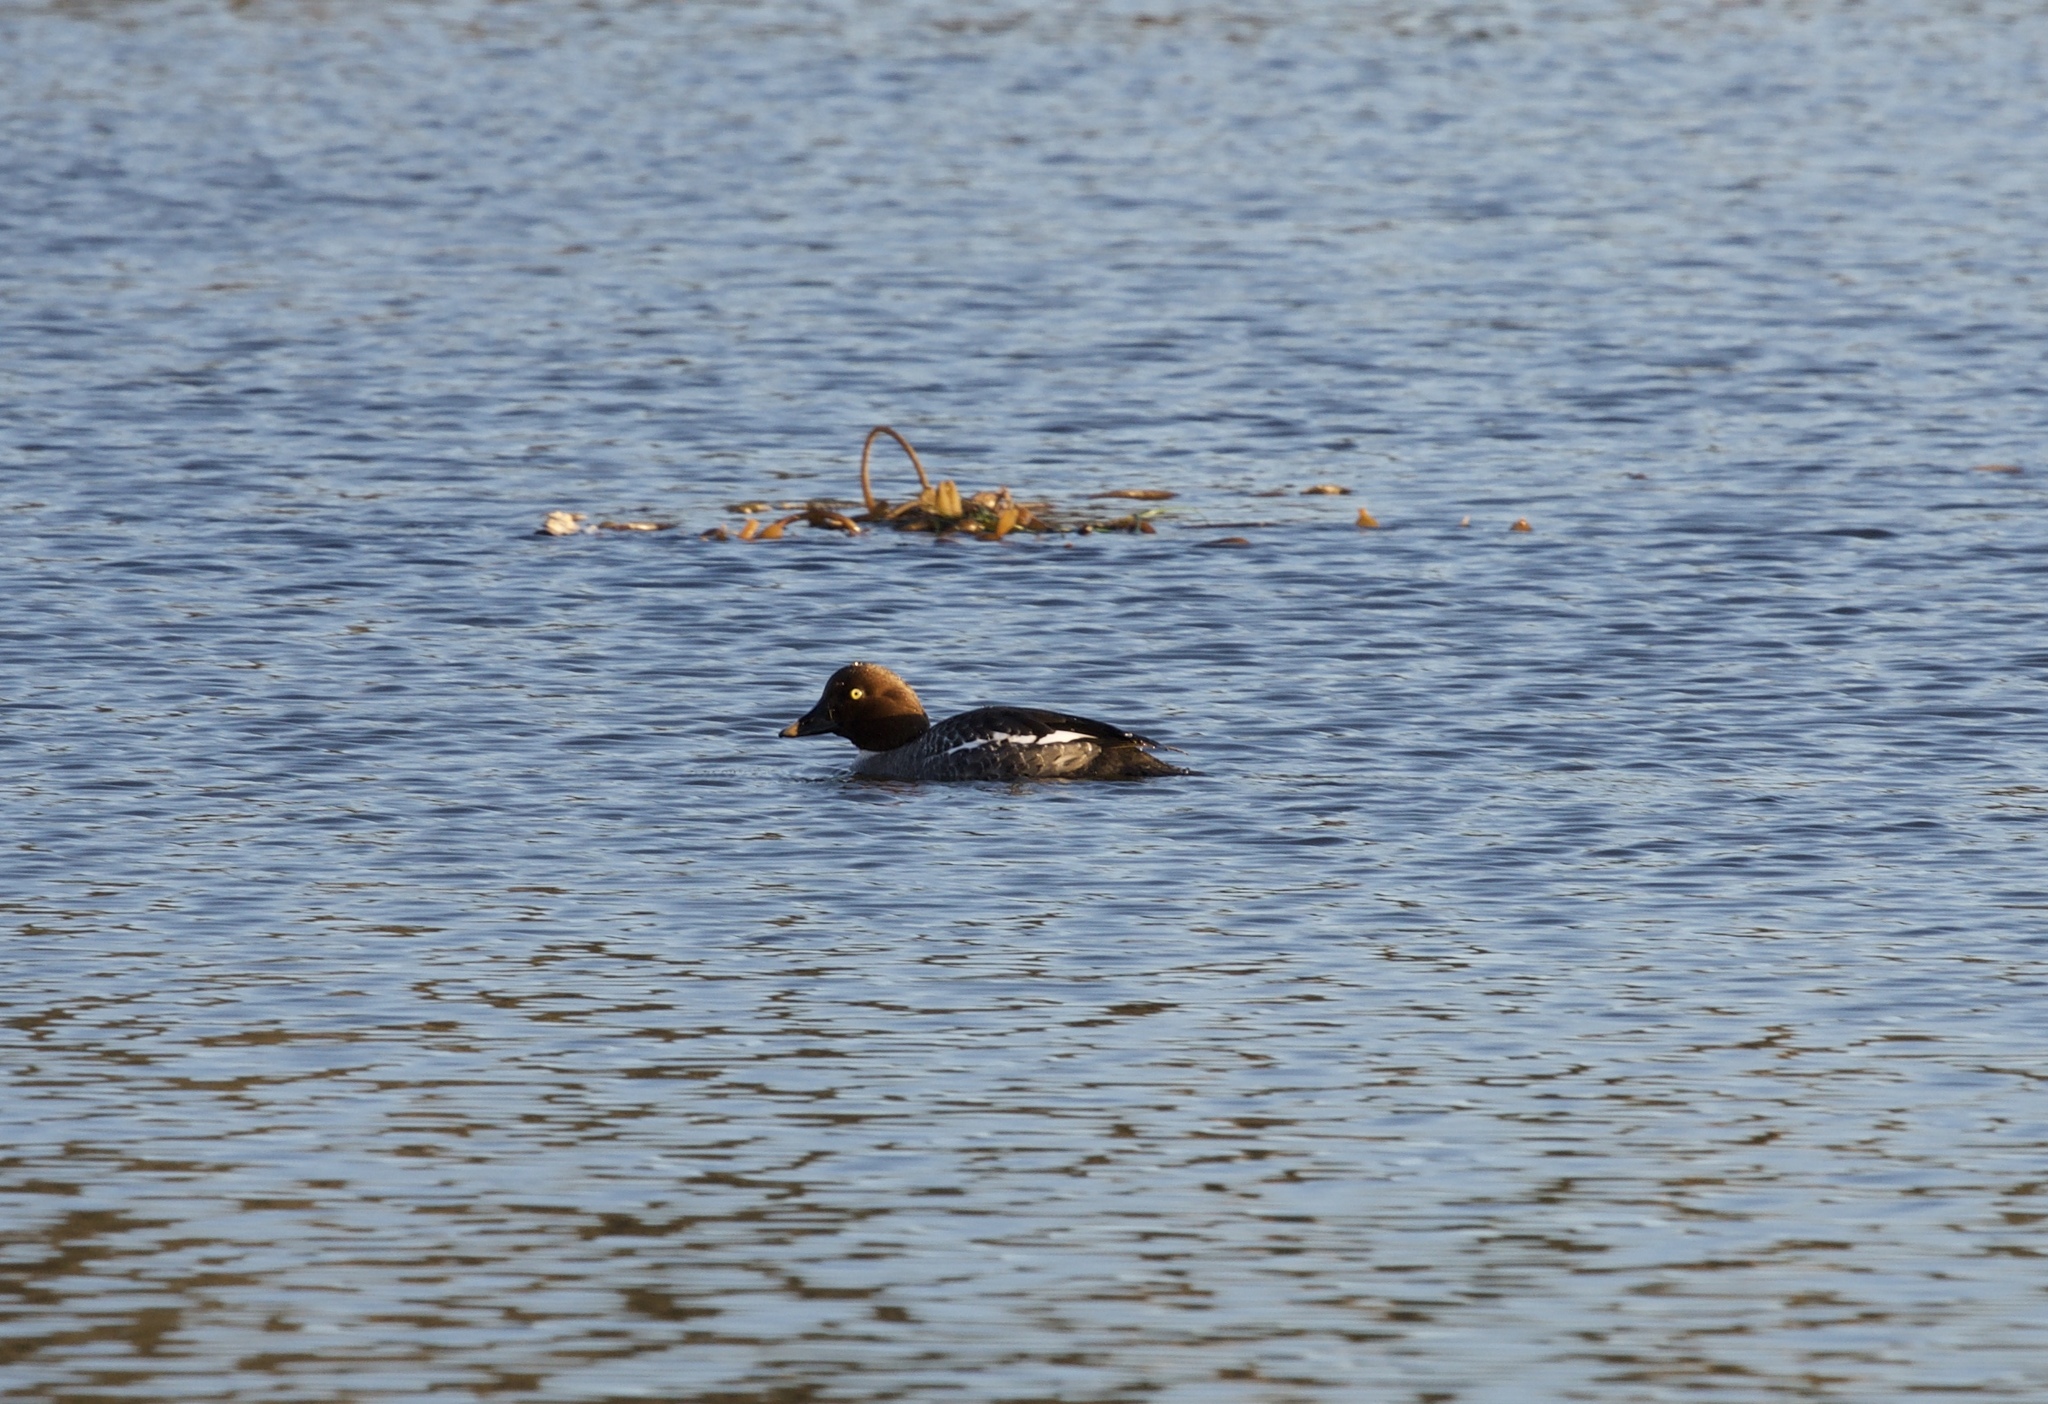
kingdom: Animalia
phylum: Chordata
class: Aves
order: Anseriformes
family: Anatidae
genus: Bucephala
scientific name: Bucephala clangula
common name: Common goldeneye
